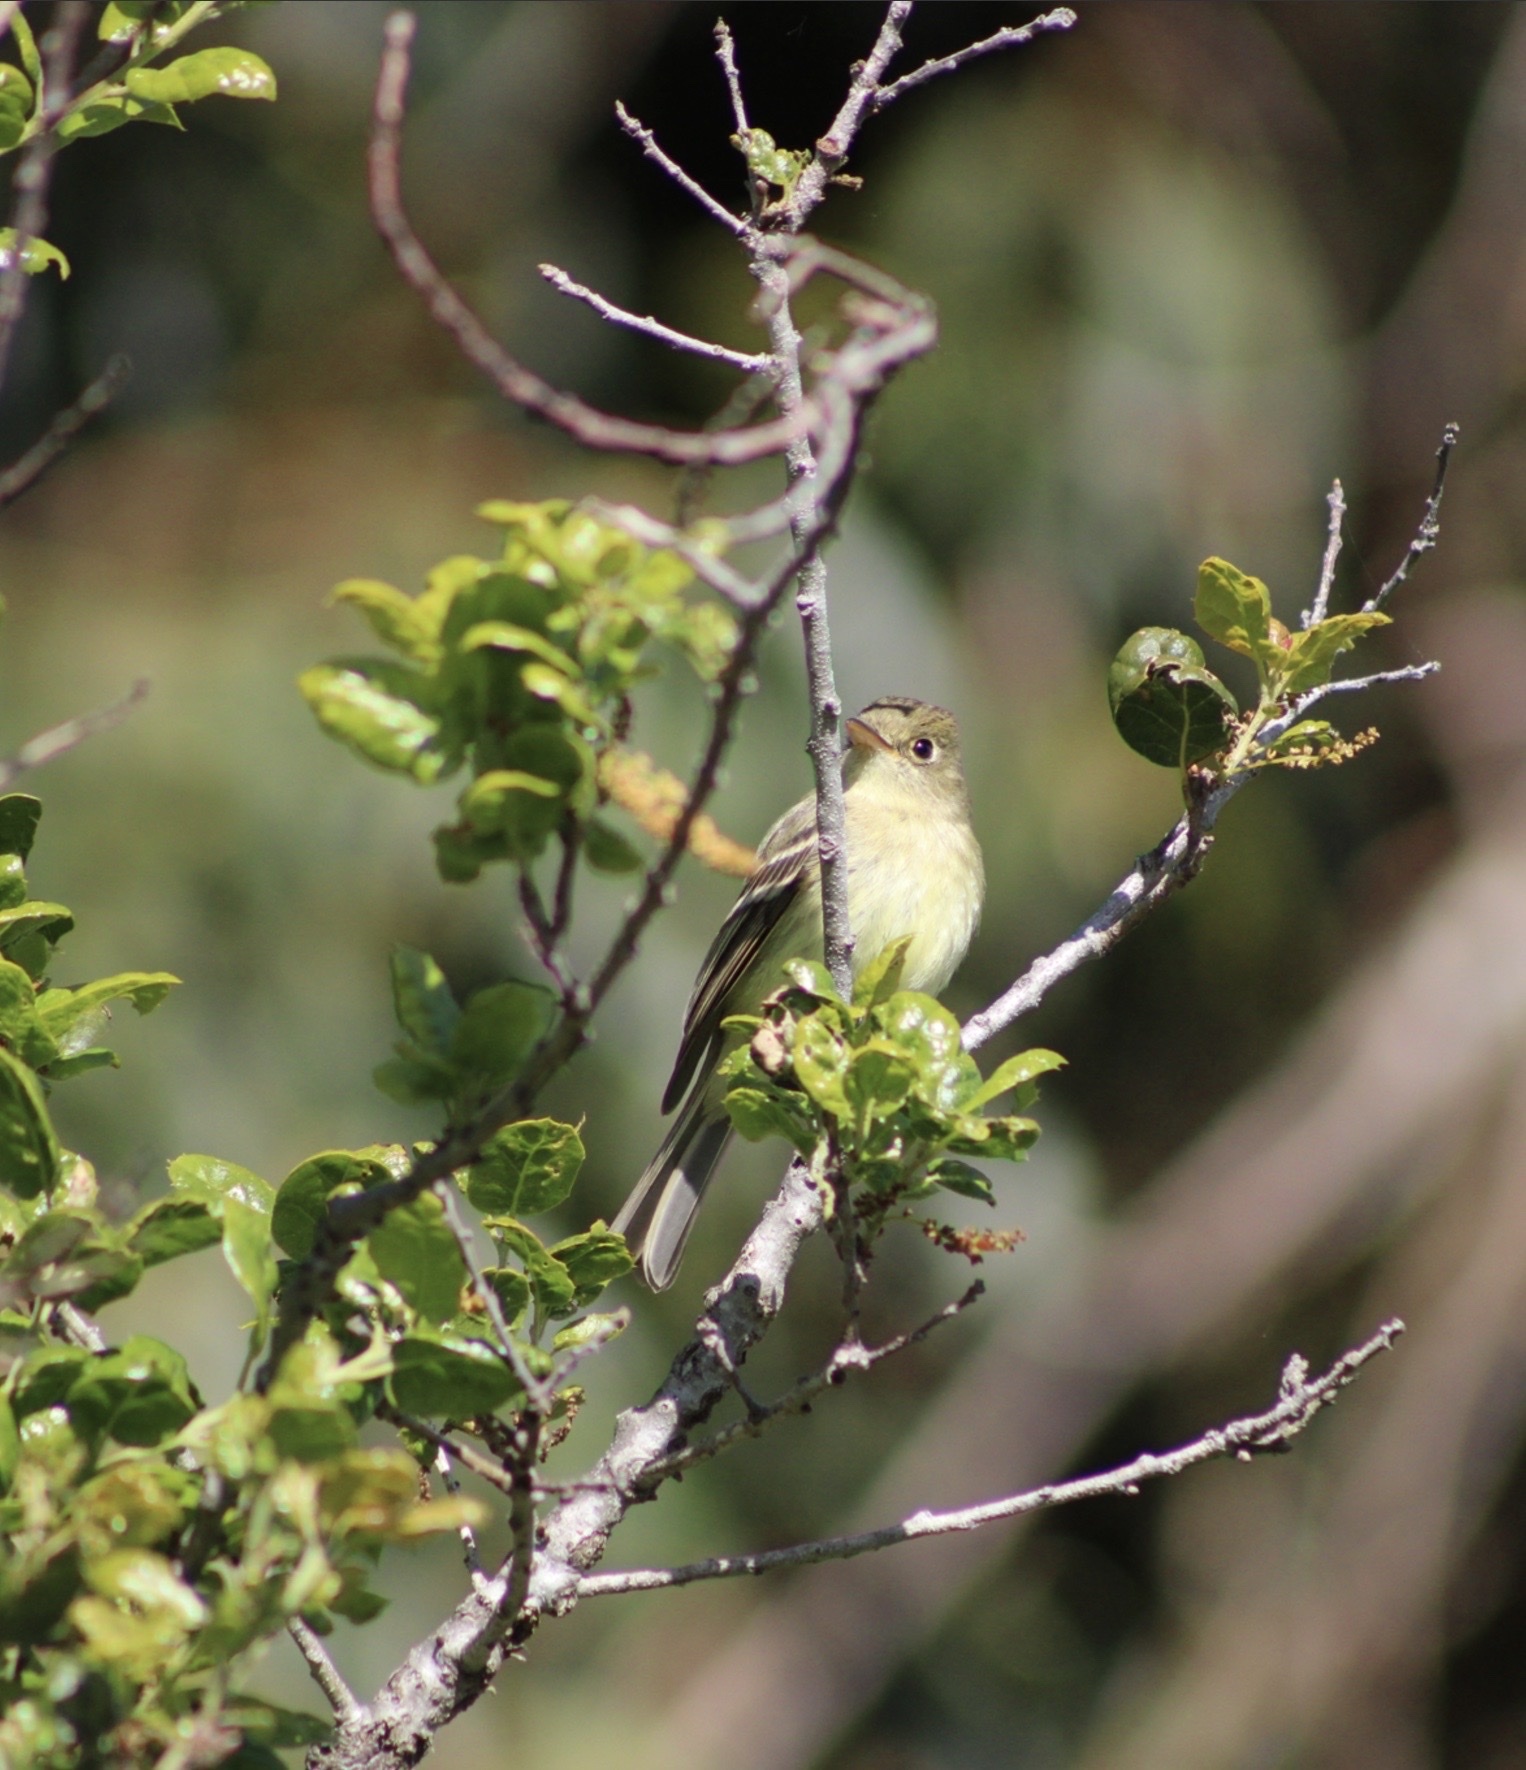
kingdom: Animalia
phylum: Chordata
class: Aves
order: Passeriformes
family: Tyrannidae
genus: Empidonax
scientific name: Empidonax difficilis
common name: Pacific-slope flycatcher
